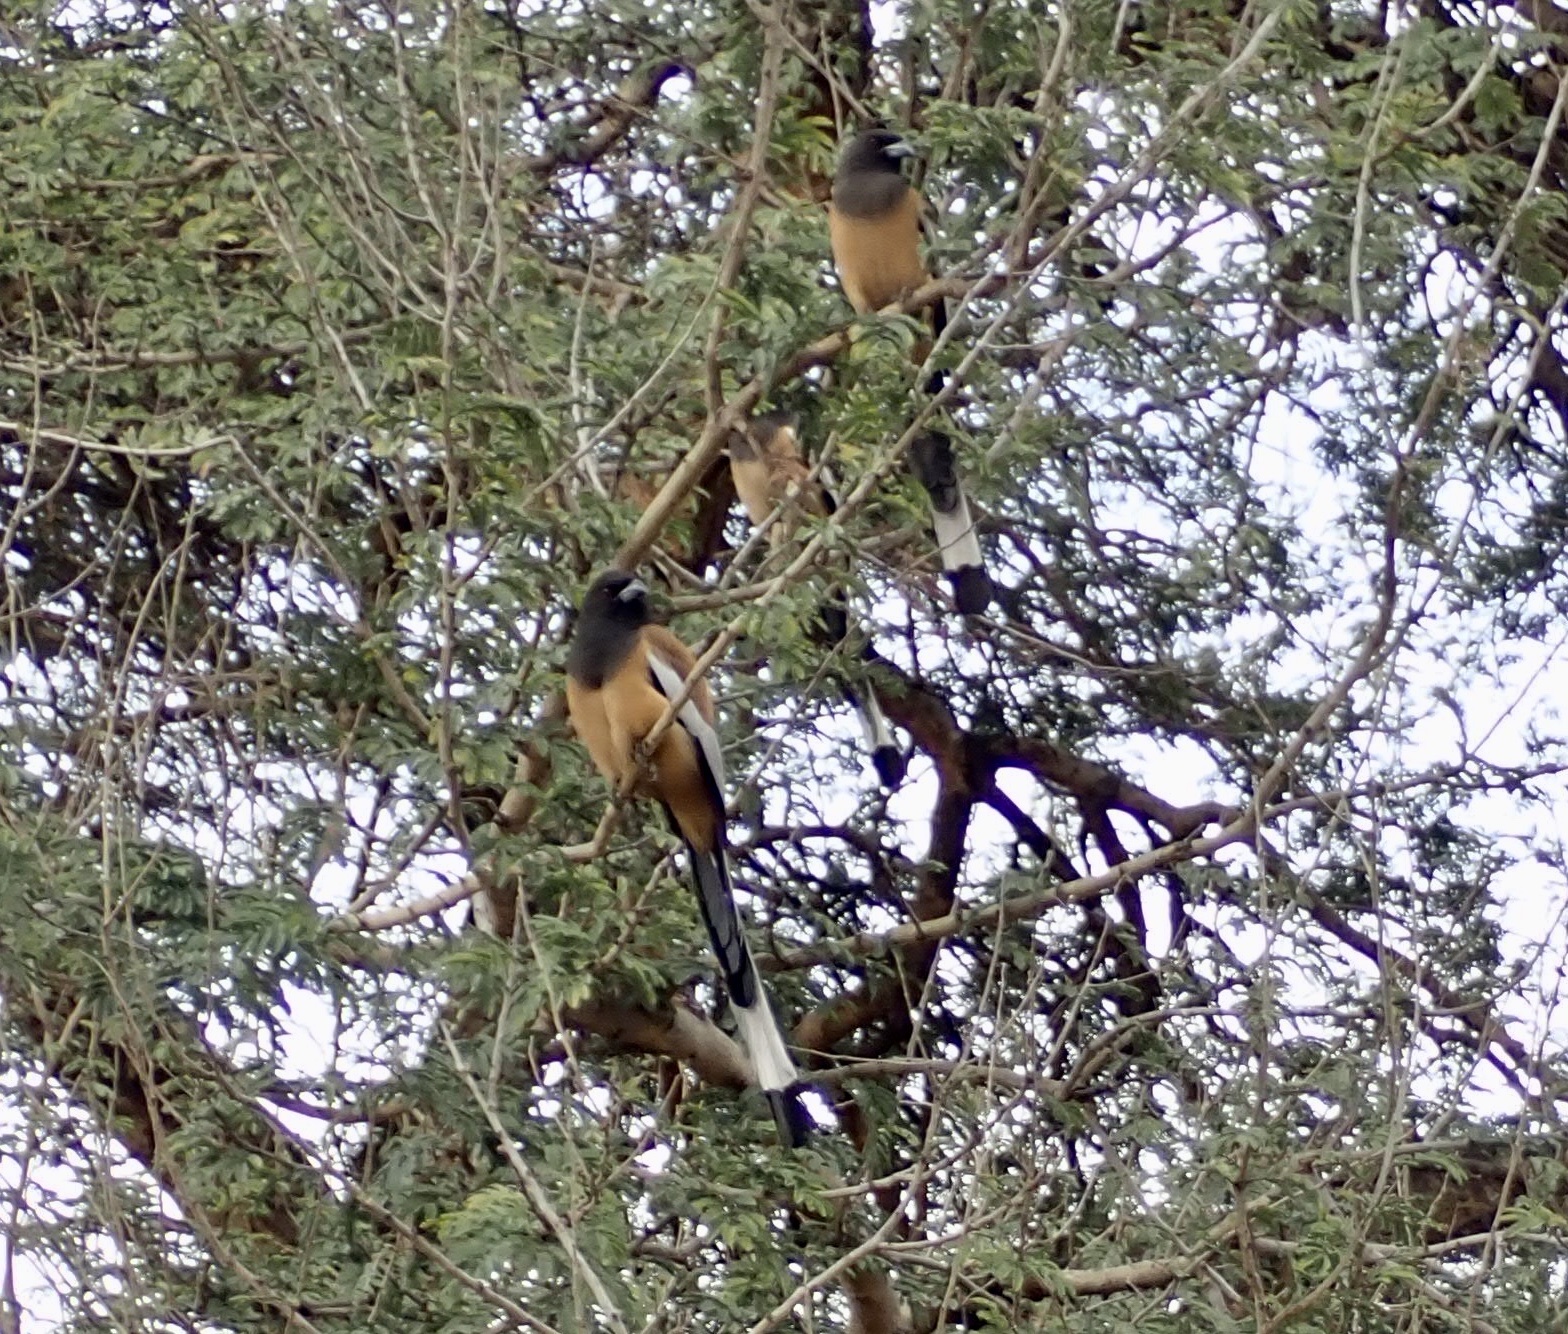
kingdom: Animalia
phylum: Chordata
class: Aves
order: Passeriformes
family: Corvidae
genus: Dendrocitta
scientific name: Dendrocitta vagabunda
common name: Rufous treepie
